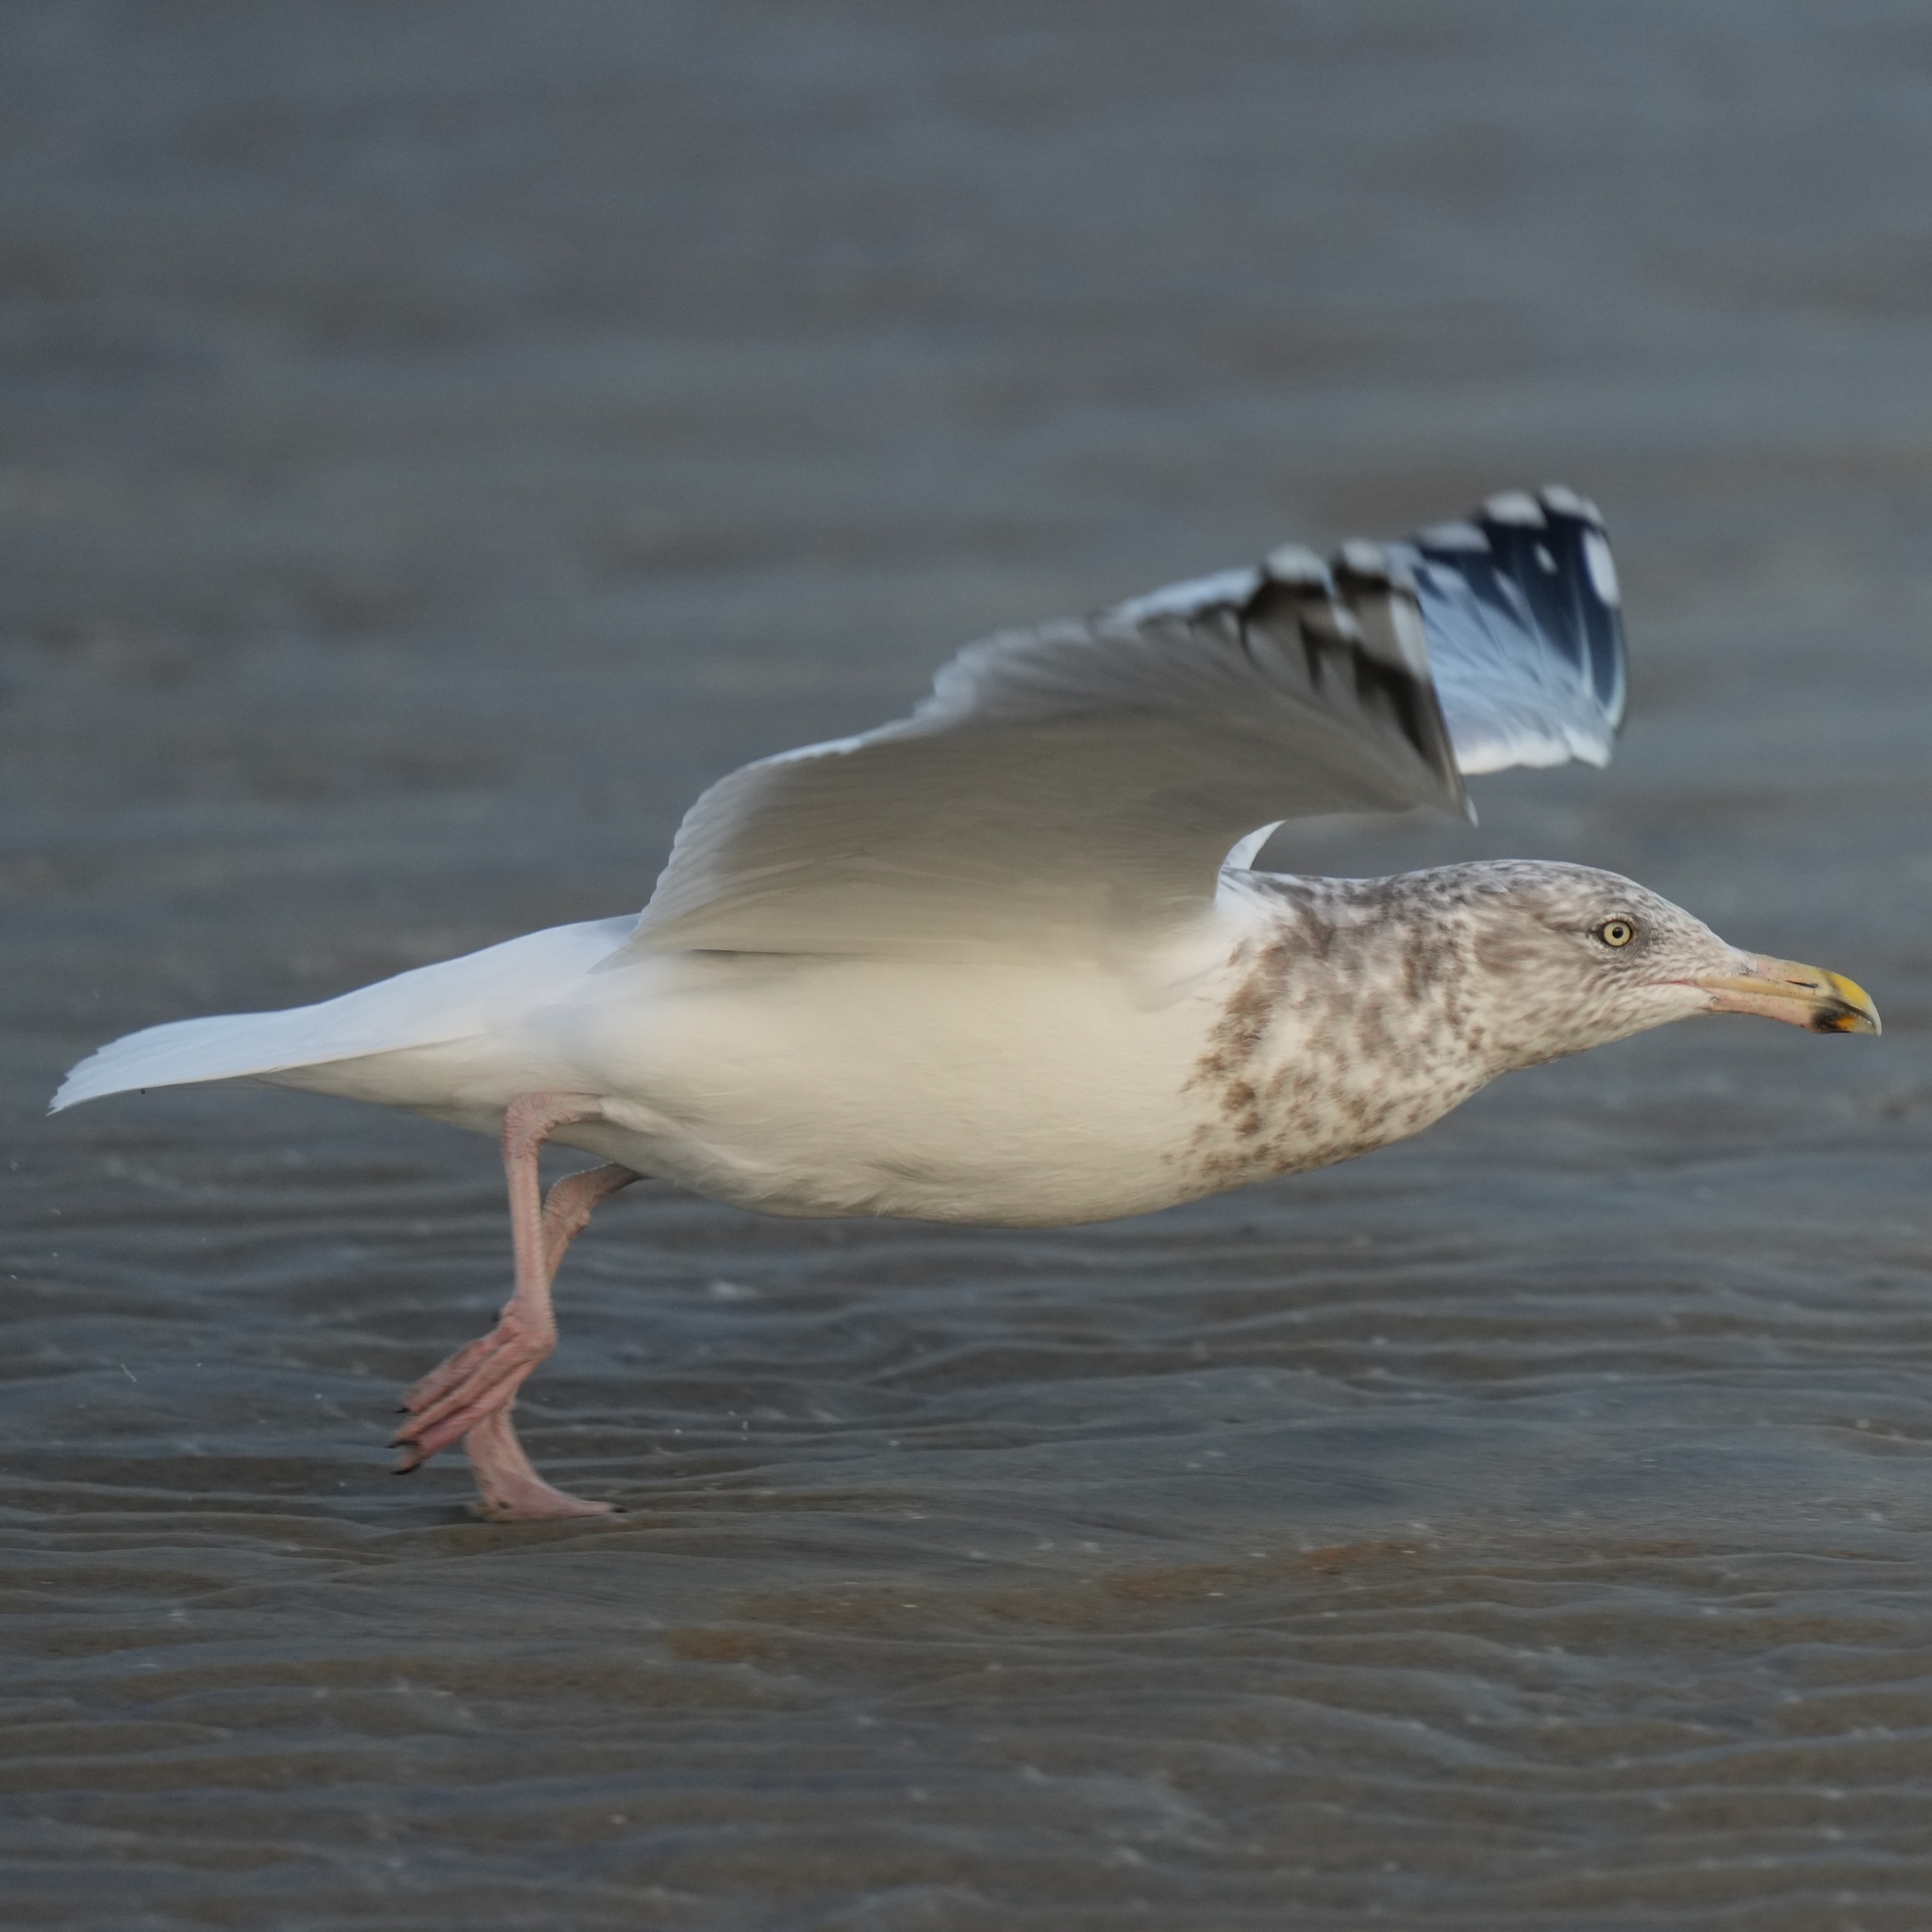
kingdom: Animalia
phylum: Chordata
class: Aves
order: Charadriiformes
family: Laridae
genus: Larus
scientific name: Larus argentatus
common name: Herring gull
